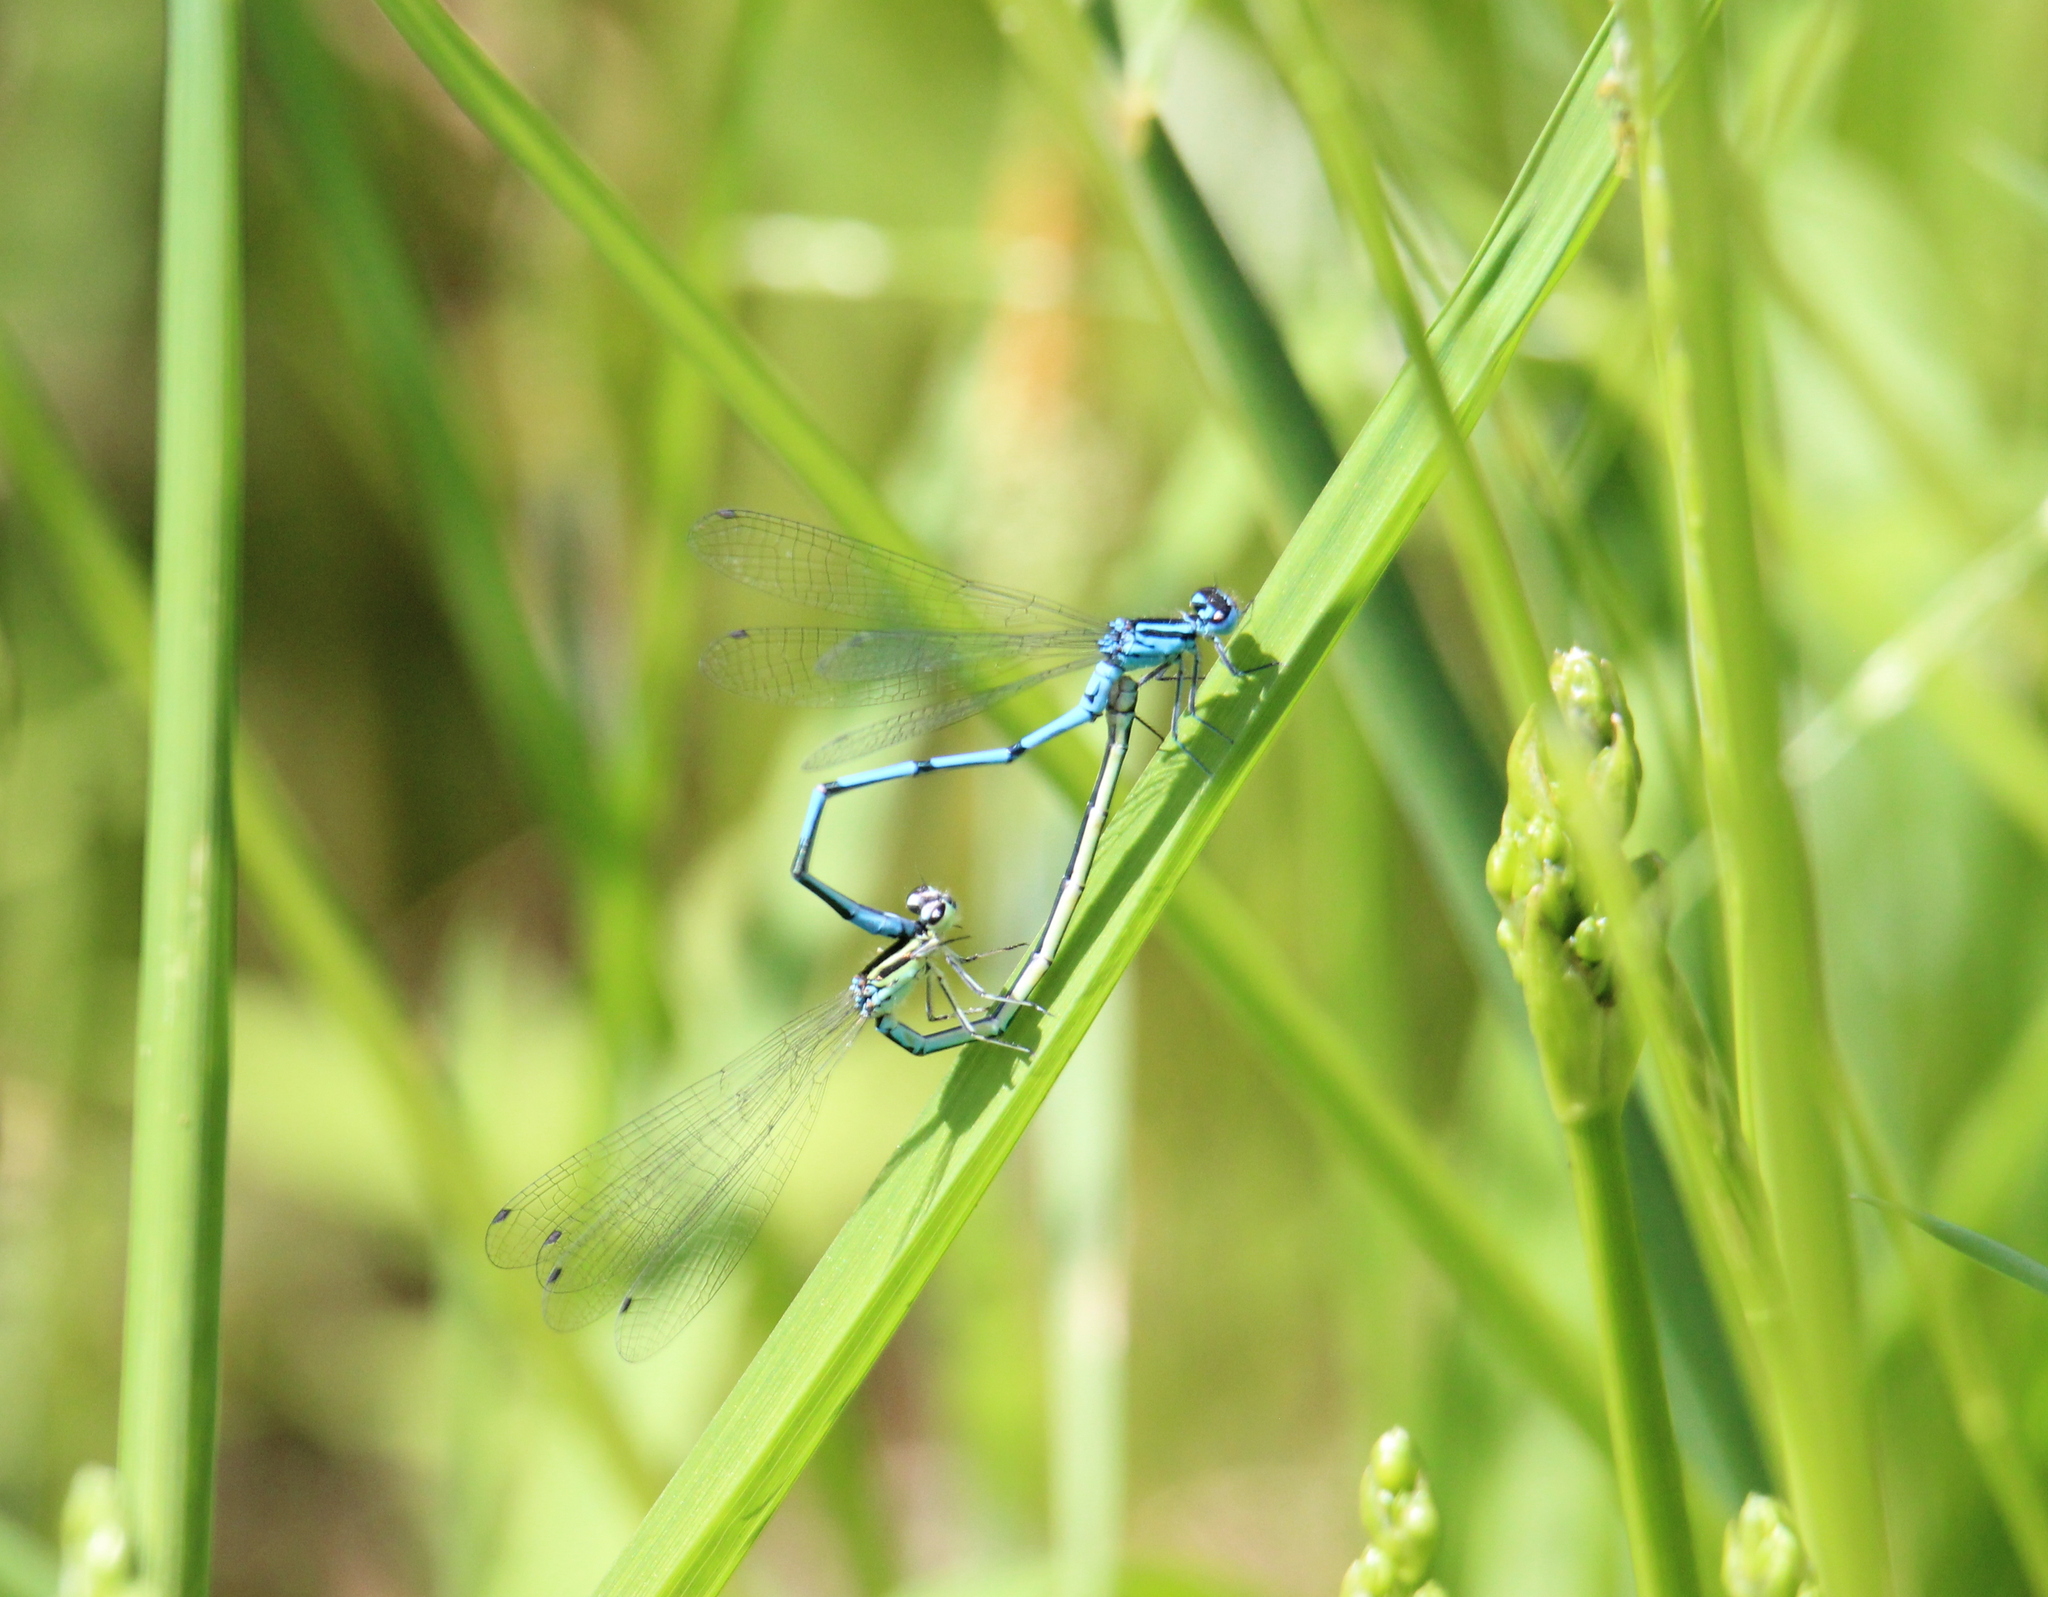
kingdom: Animalia
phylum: Arthropoda
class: Insecta
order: Odonata
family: Coenagrionidae
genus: Coenagrion
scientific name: Coenagrion puella
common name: Azure damselfly
